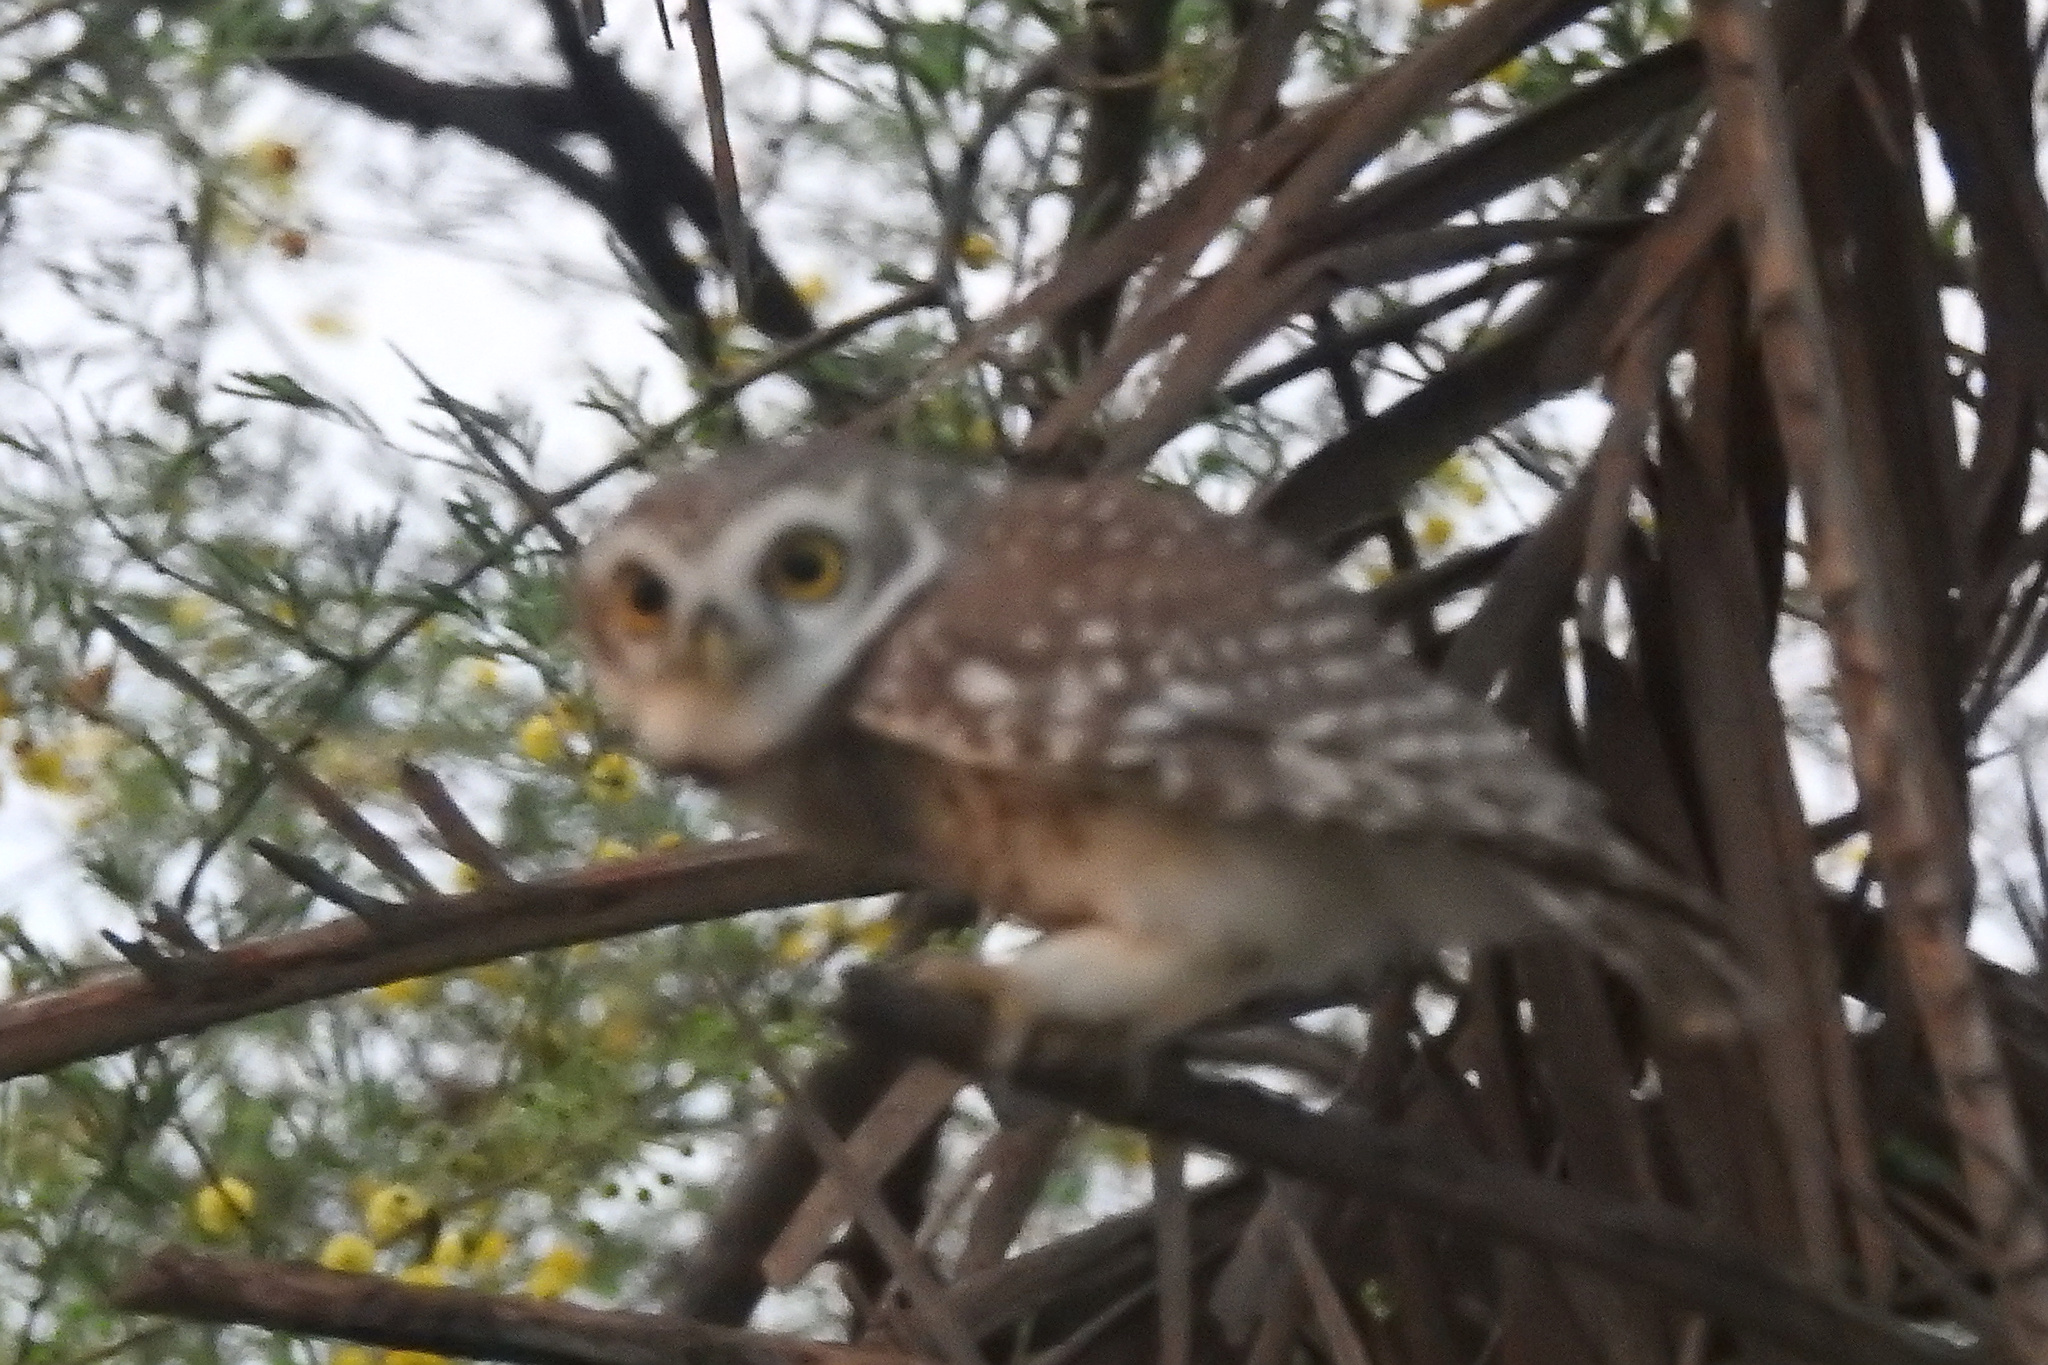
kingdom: Animalia
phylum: Chordata
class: Aves
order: Strigiformes
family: Strigidae
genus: Athene
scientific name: Athene brama
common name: Spotted owlet
